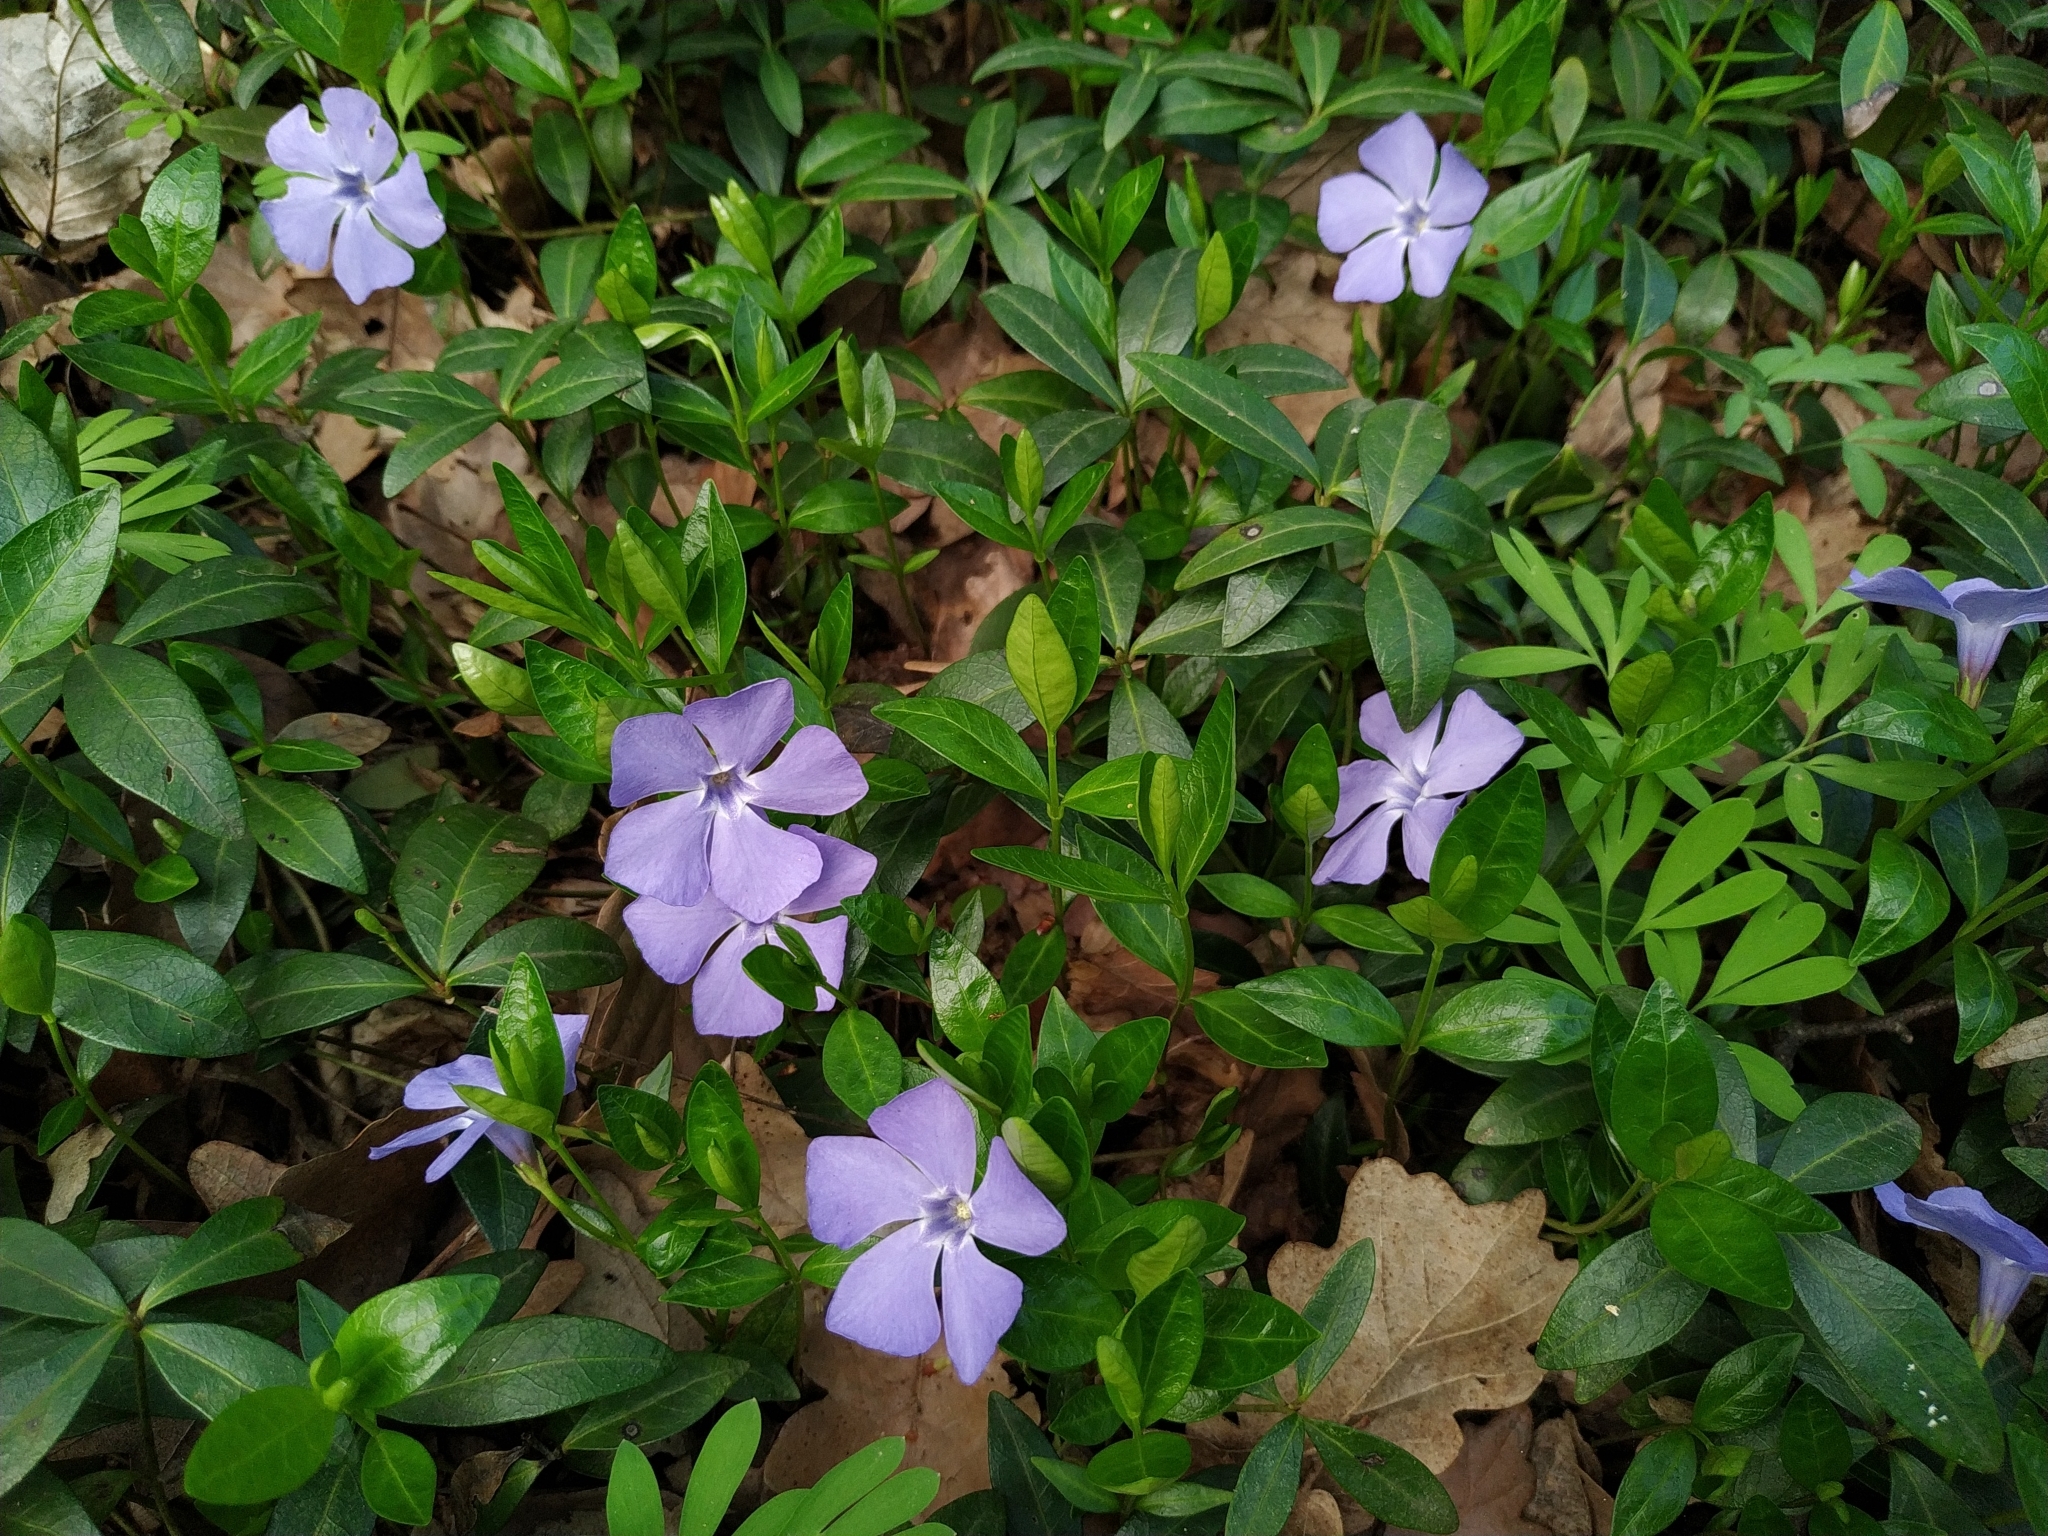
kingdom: Plantae
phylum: Tracheophyta
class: Magnoliopsida
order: Gentianales
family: Apocynaceae
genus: Vinca
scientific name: Vinca minor
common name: Lesser periwinkle
